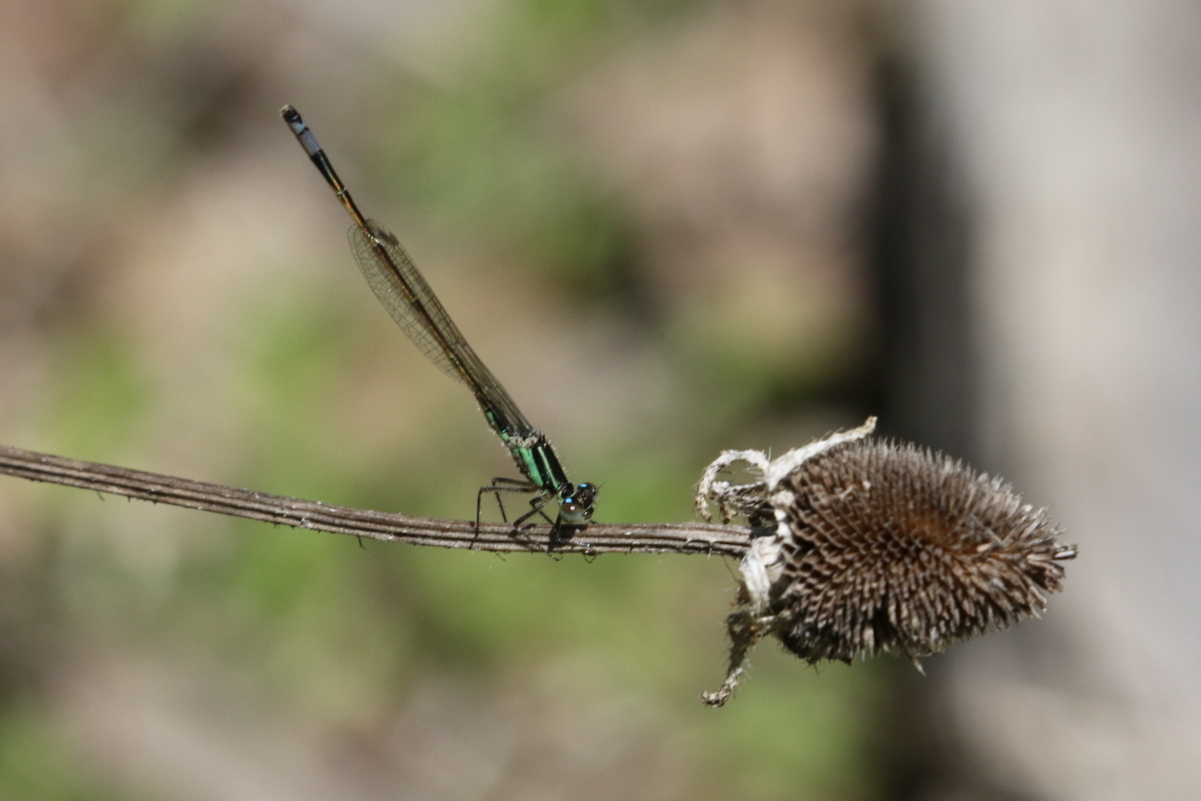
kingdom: Animalia
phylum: Arthropoda
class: Insecta
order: Odonata
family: Coenagrionidae
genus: Ischnura
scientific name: Ischnura ramburii
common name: Rambur's forktail
